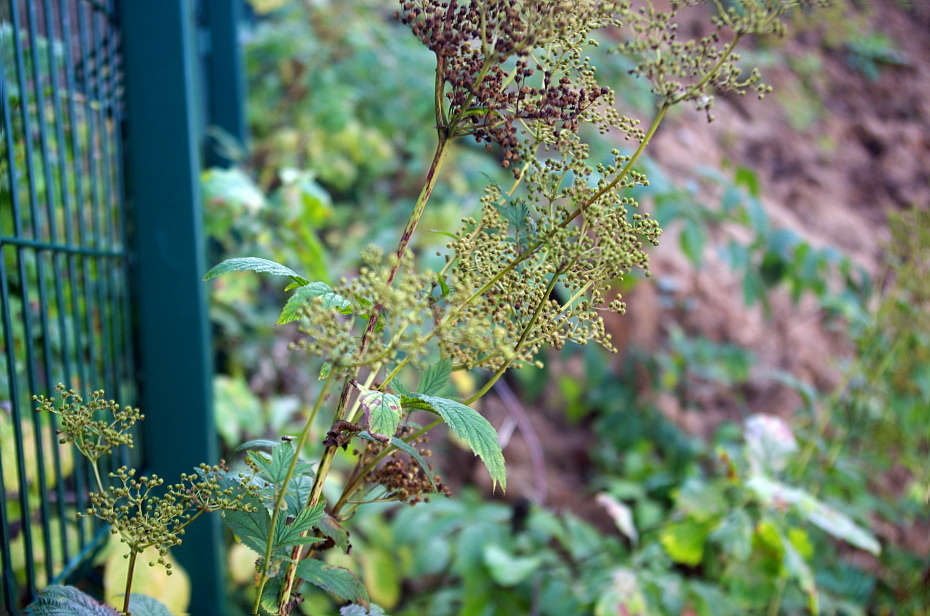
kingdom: Plantae
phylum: Tracheophyta
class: Magnoliopsida
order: Rosales
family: Rosaceae
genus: Filipendula
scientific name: Filipendula ulmaria
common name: Meadowsweet
